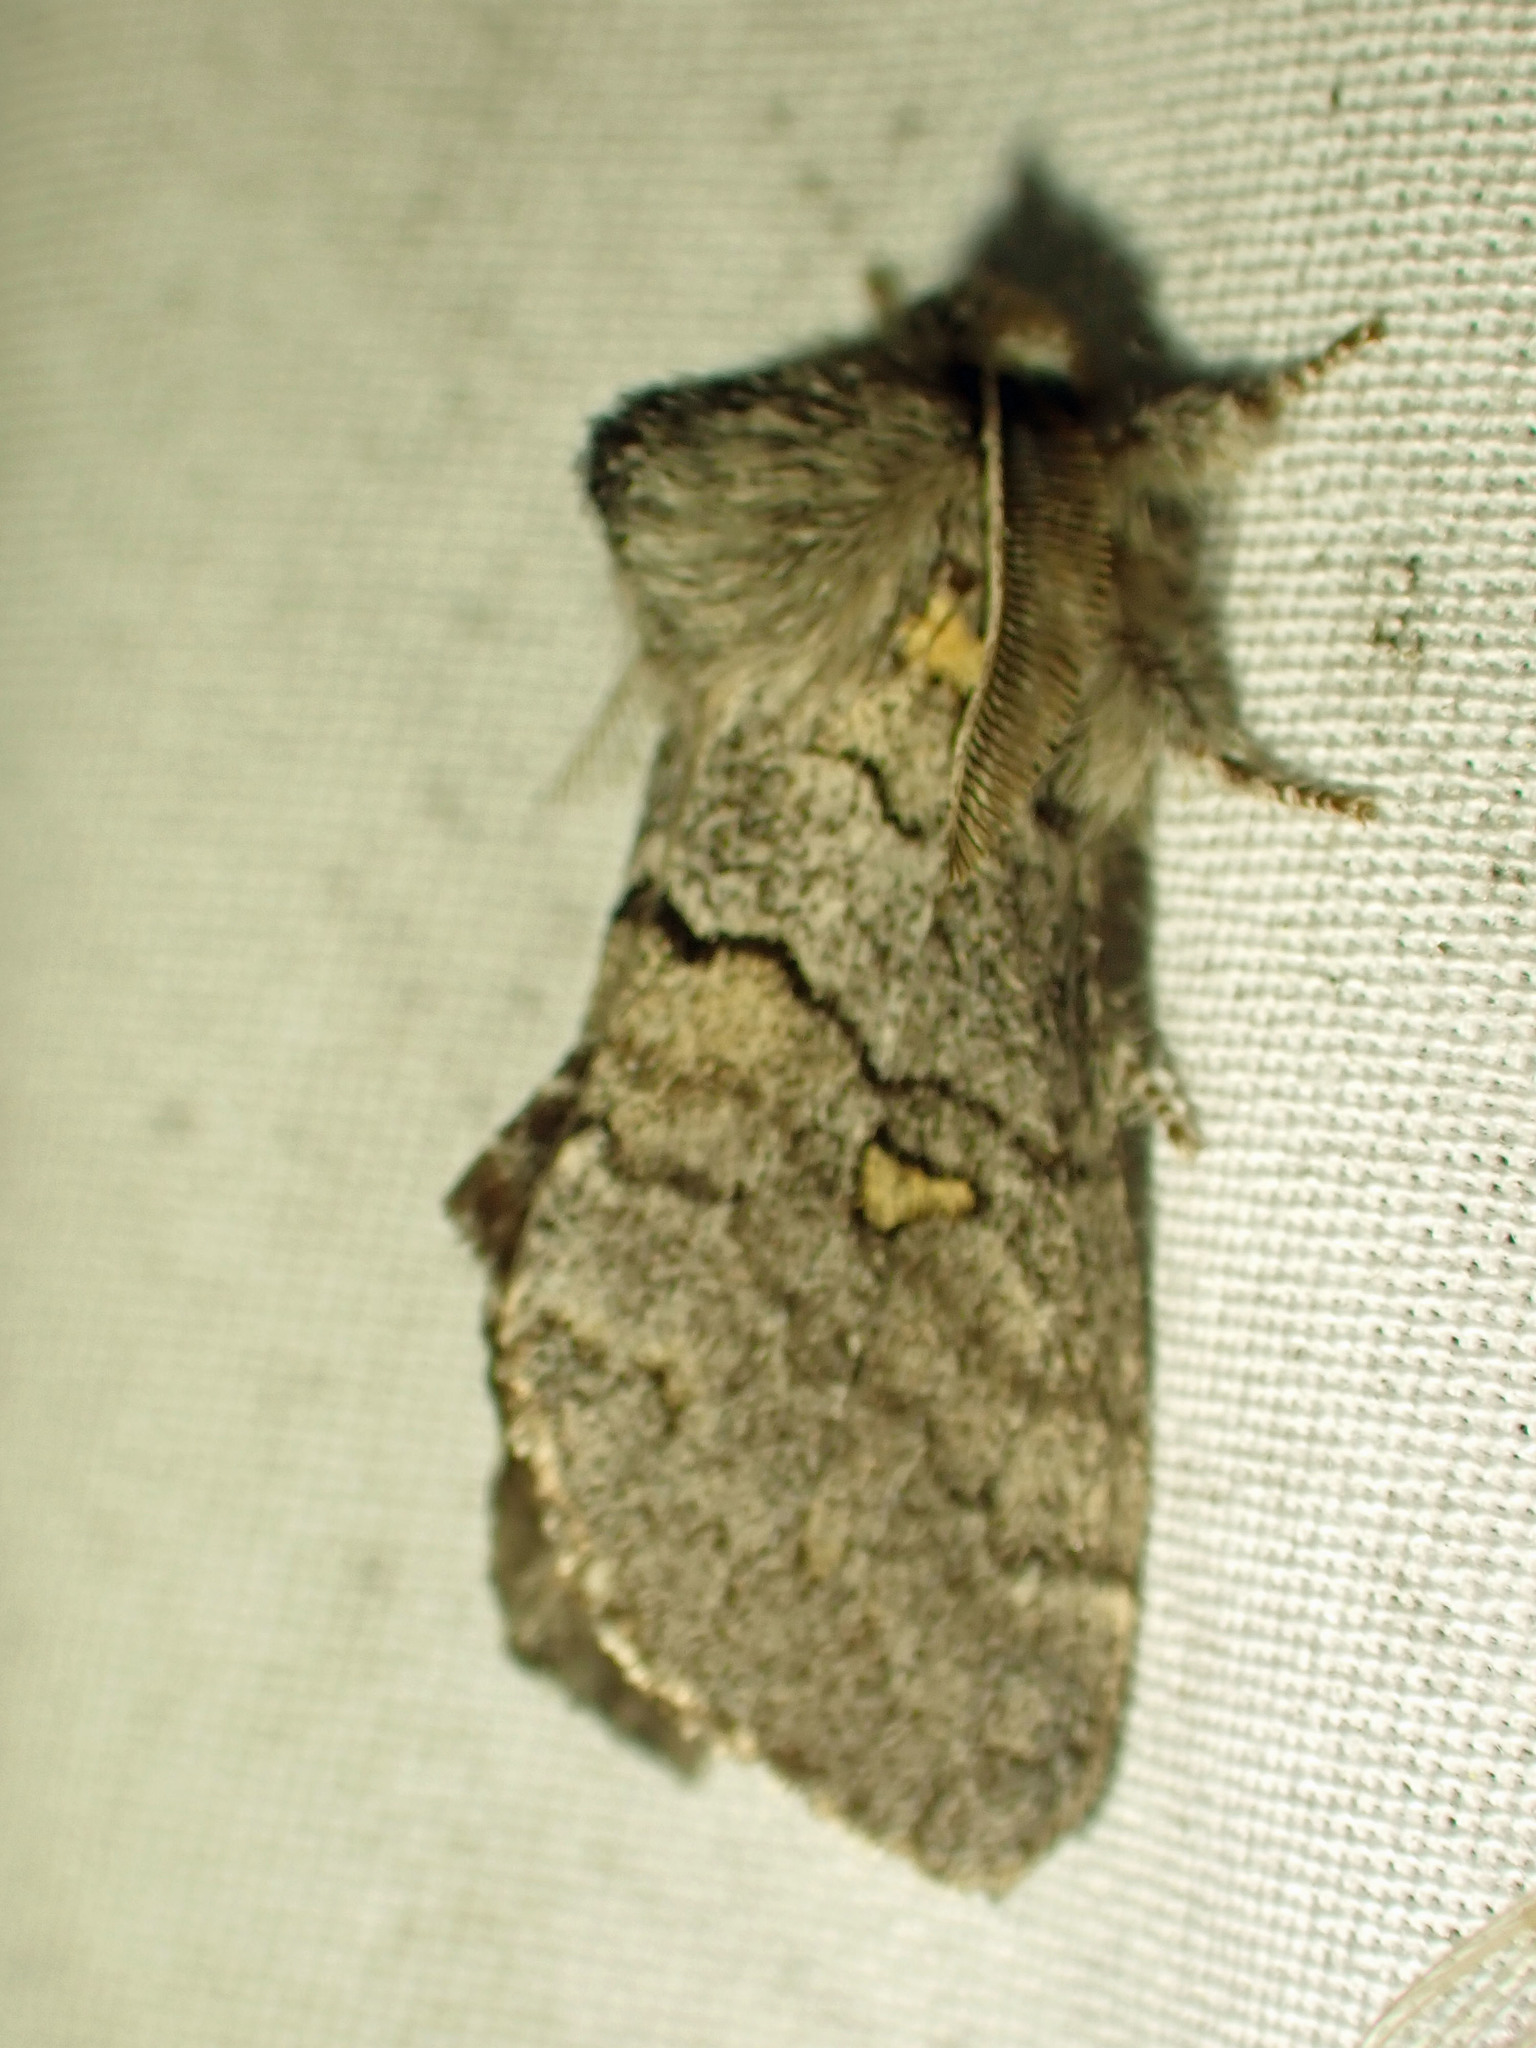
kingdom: Animalia
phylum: Arthropoda
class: Insecta
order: Lepidoptera
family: Notodontidae
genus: Gluphisia
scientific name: Gluphisia avimacula
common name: Four-spotted gluphisia moth
